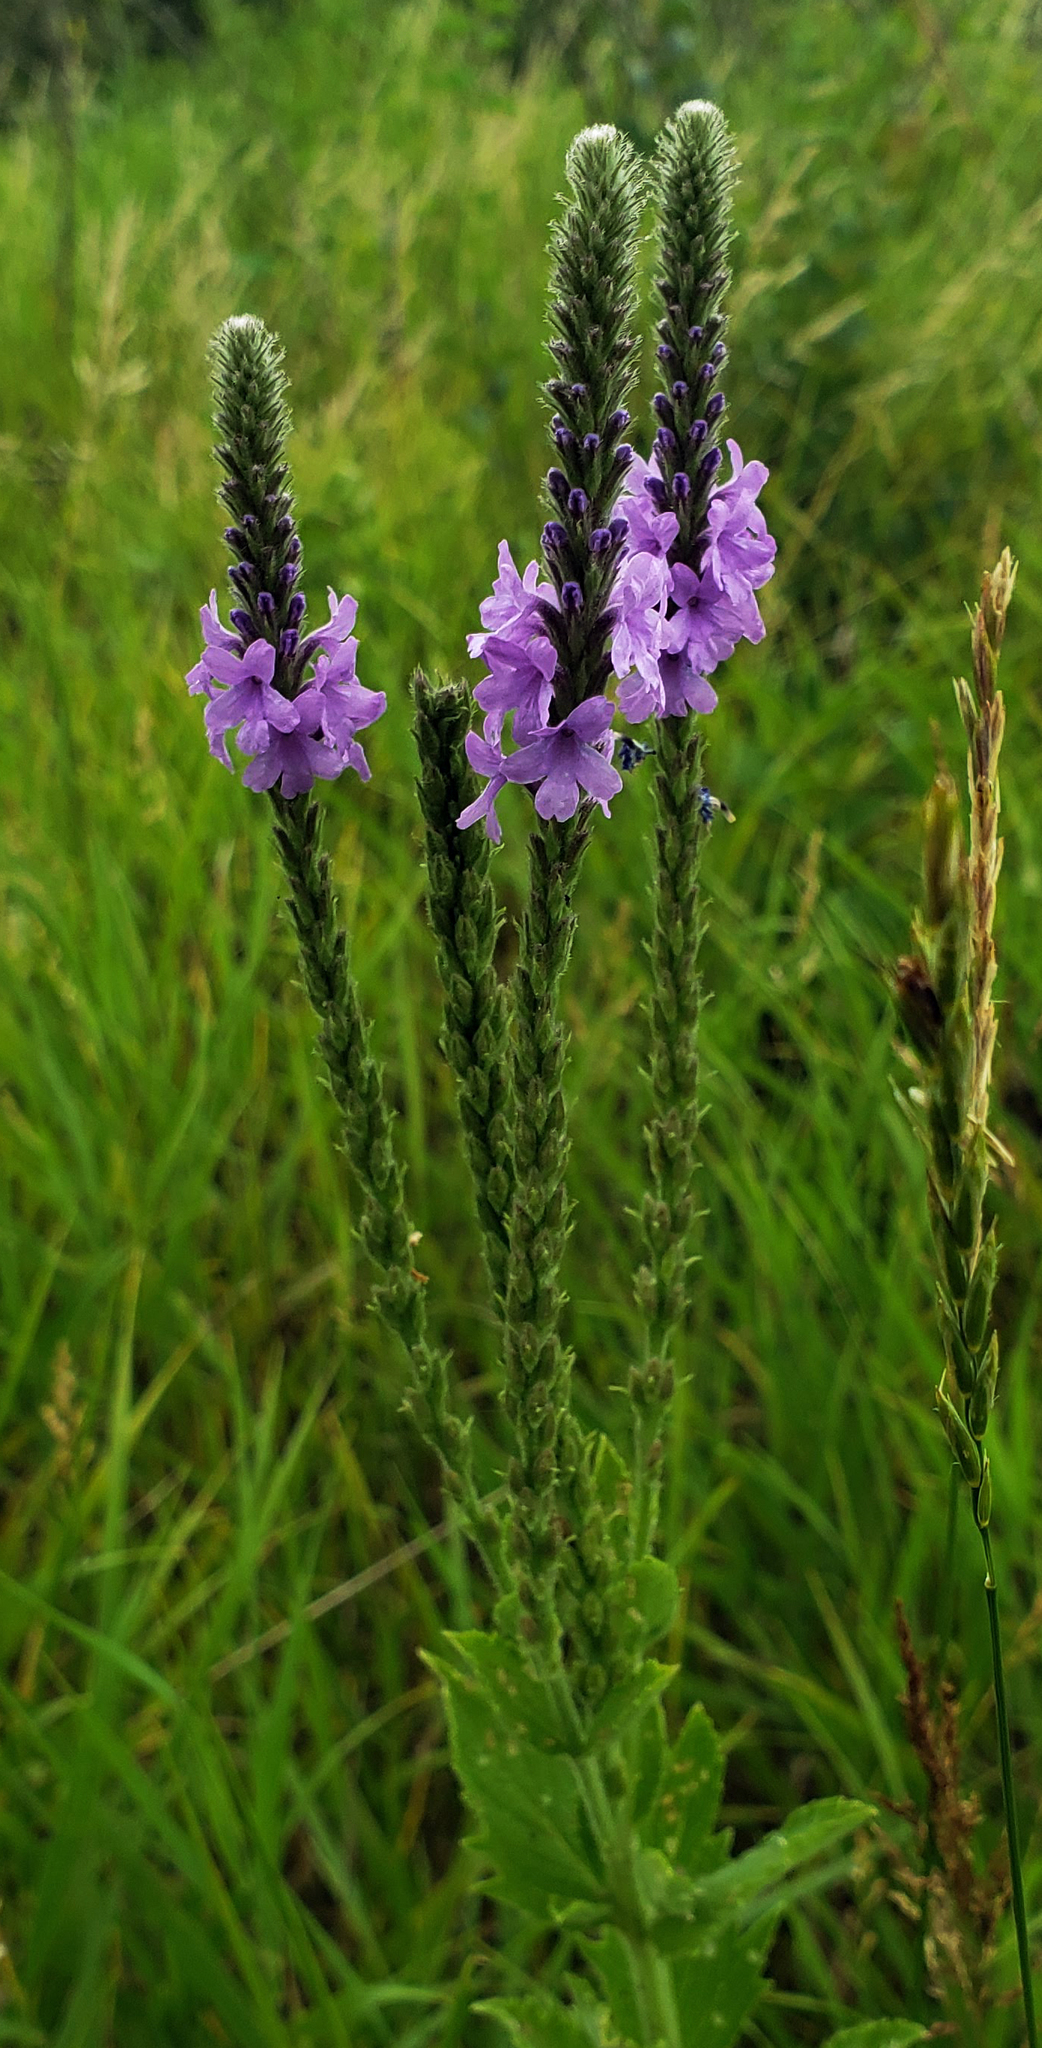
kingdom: Plantae
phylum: Tracheophyta
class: Magnoliopsida
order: Lamiales
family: Verbenaceae
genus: Verbena
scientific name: Verbena stricta
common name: Hoary vervain
